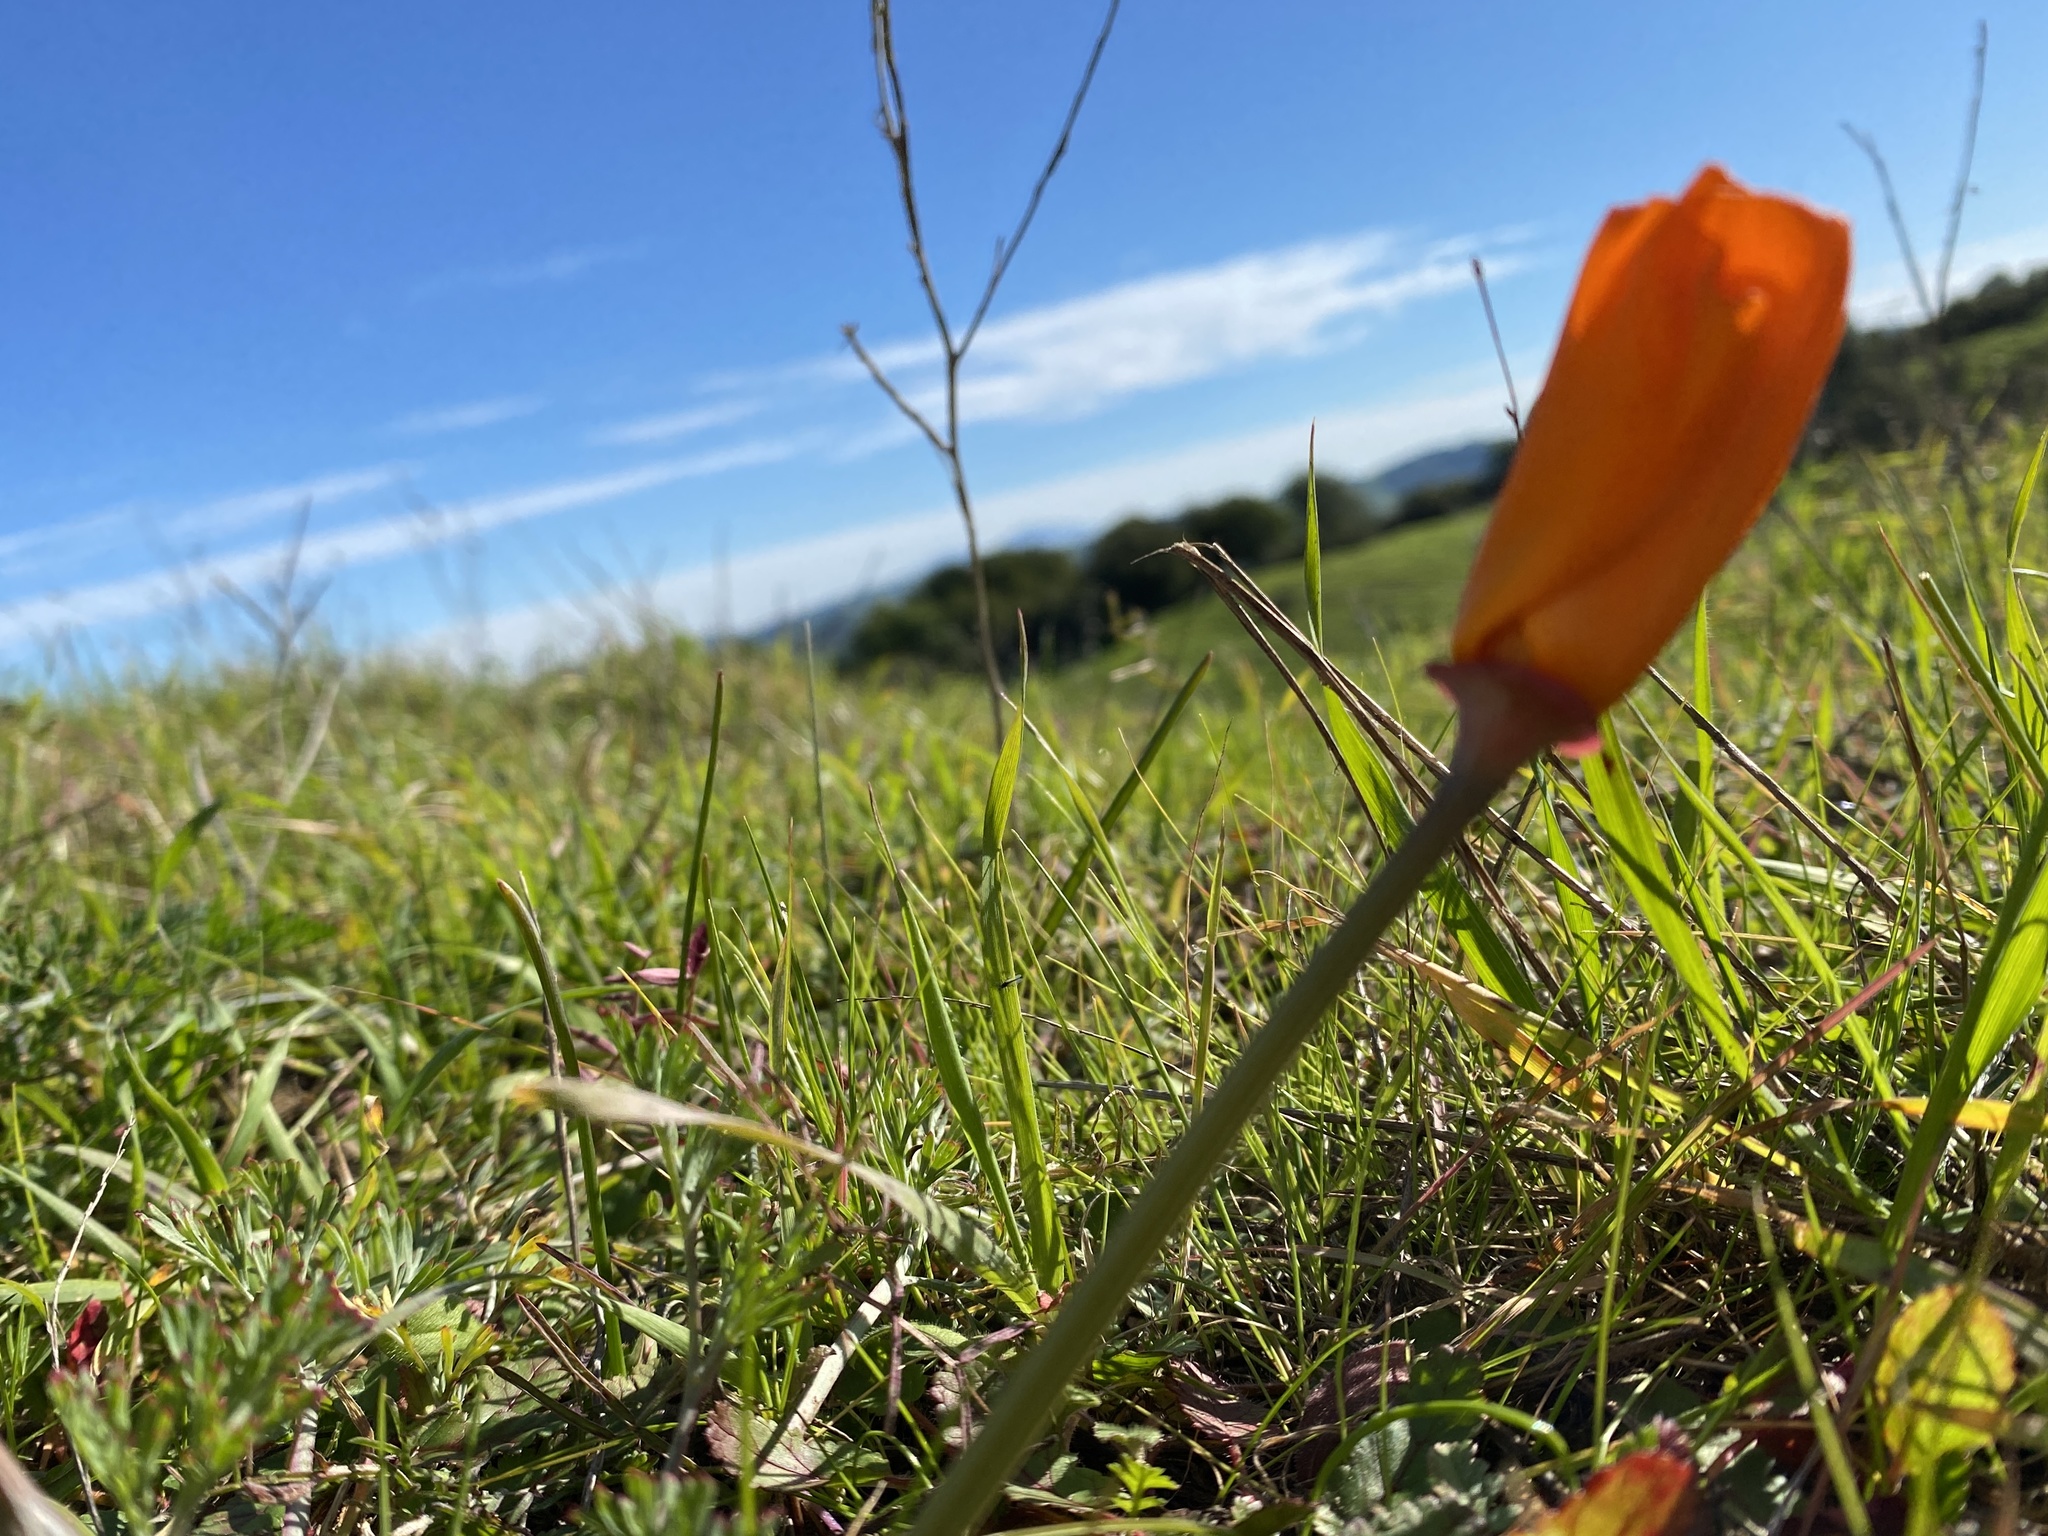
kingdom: Plantae
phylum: Tracheophyta
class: Magnoliopsida
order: Ranunculales
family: Papaveraceae
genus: Eschscholzia
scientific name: Eschscholzia californica
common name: California poppy
